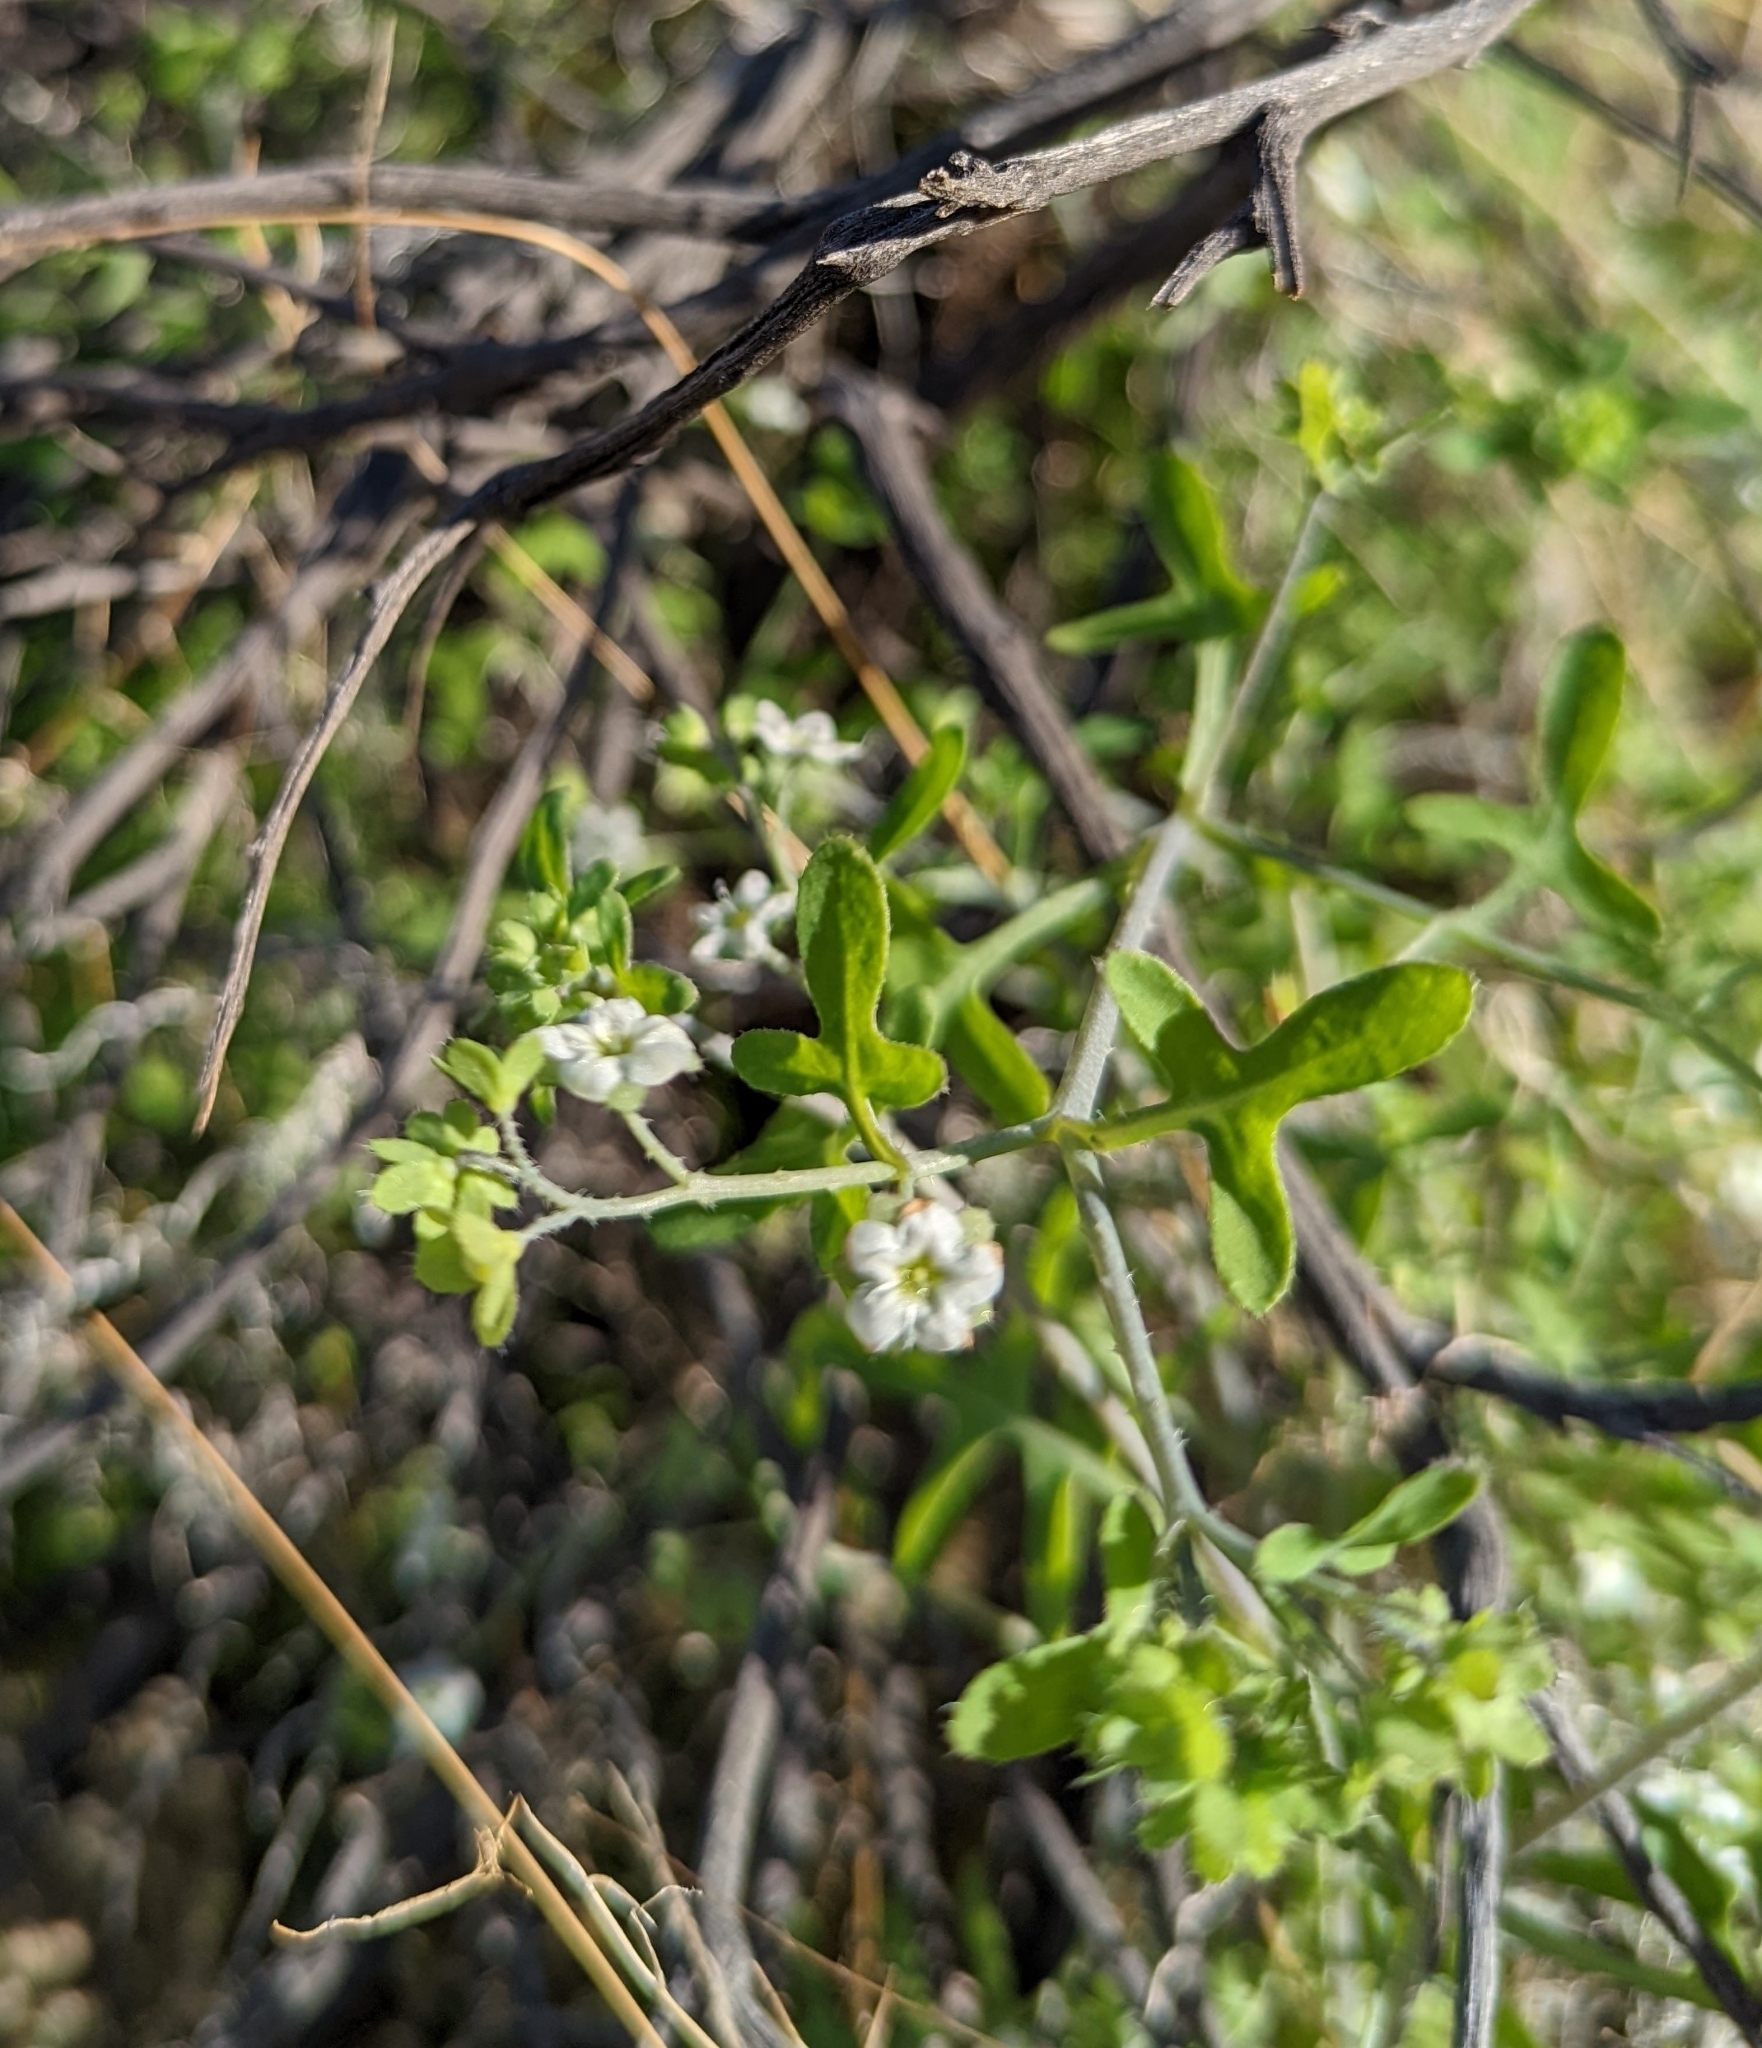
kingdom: Plantae
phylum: Tracheophyta
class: Magnoliopsida
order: Boraginales
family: Hydrophyllaceae
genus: Pholistoma
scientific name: Pholistoma membranaceum
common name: White fiesta-flower
